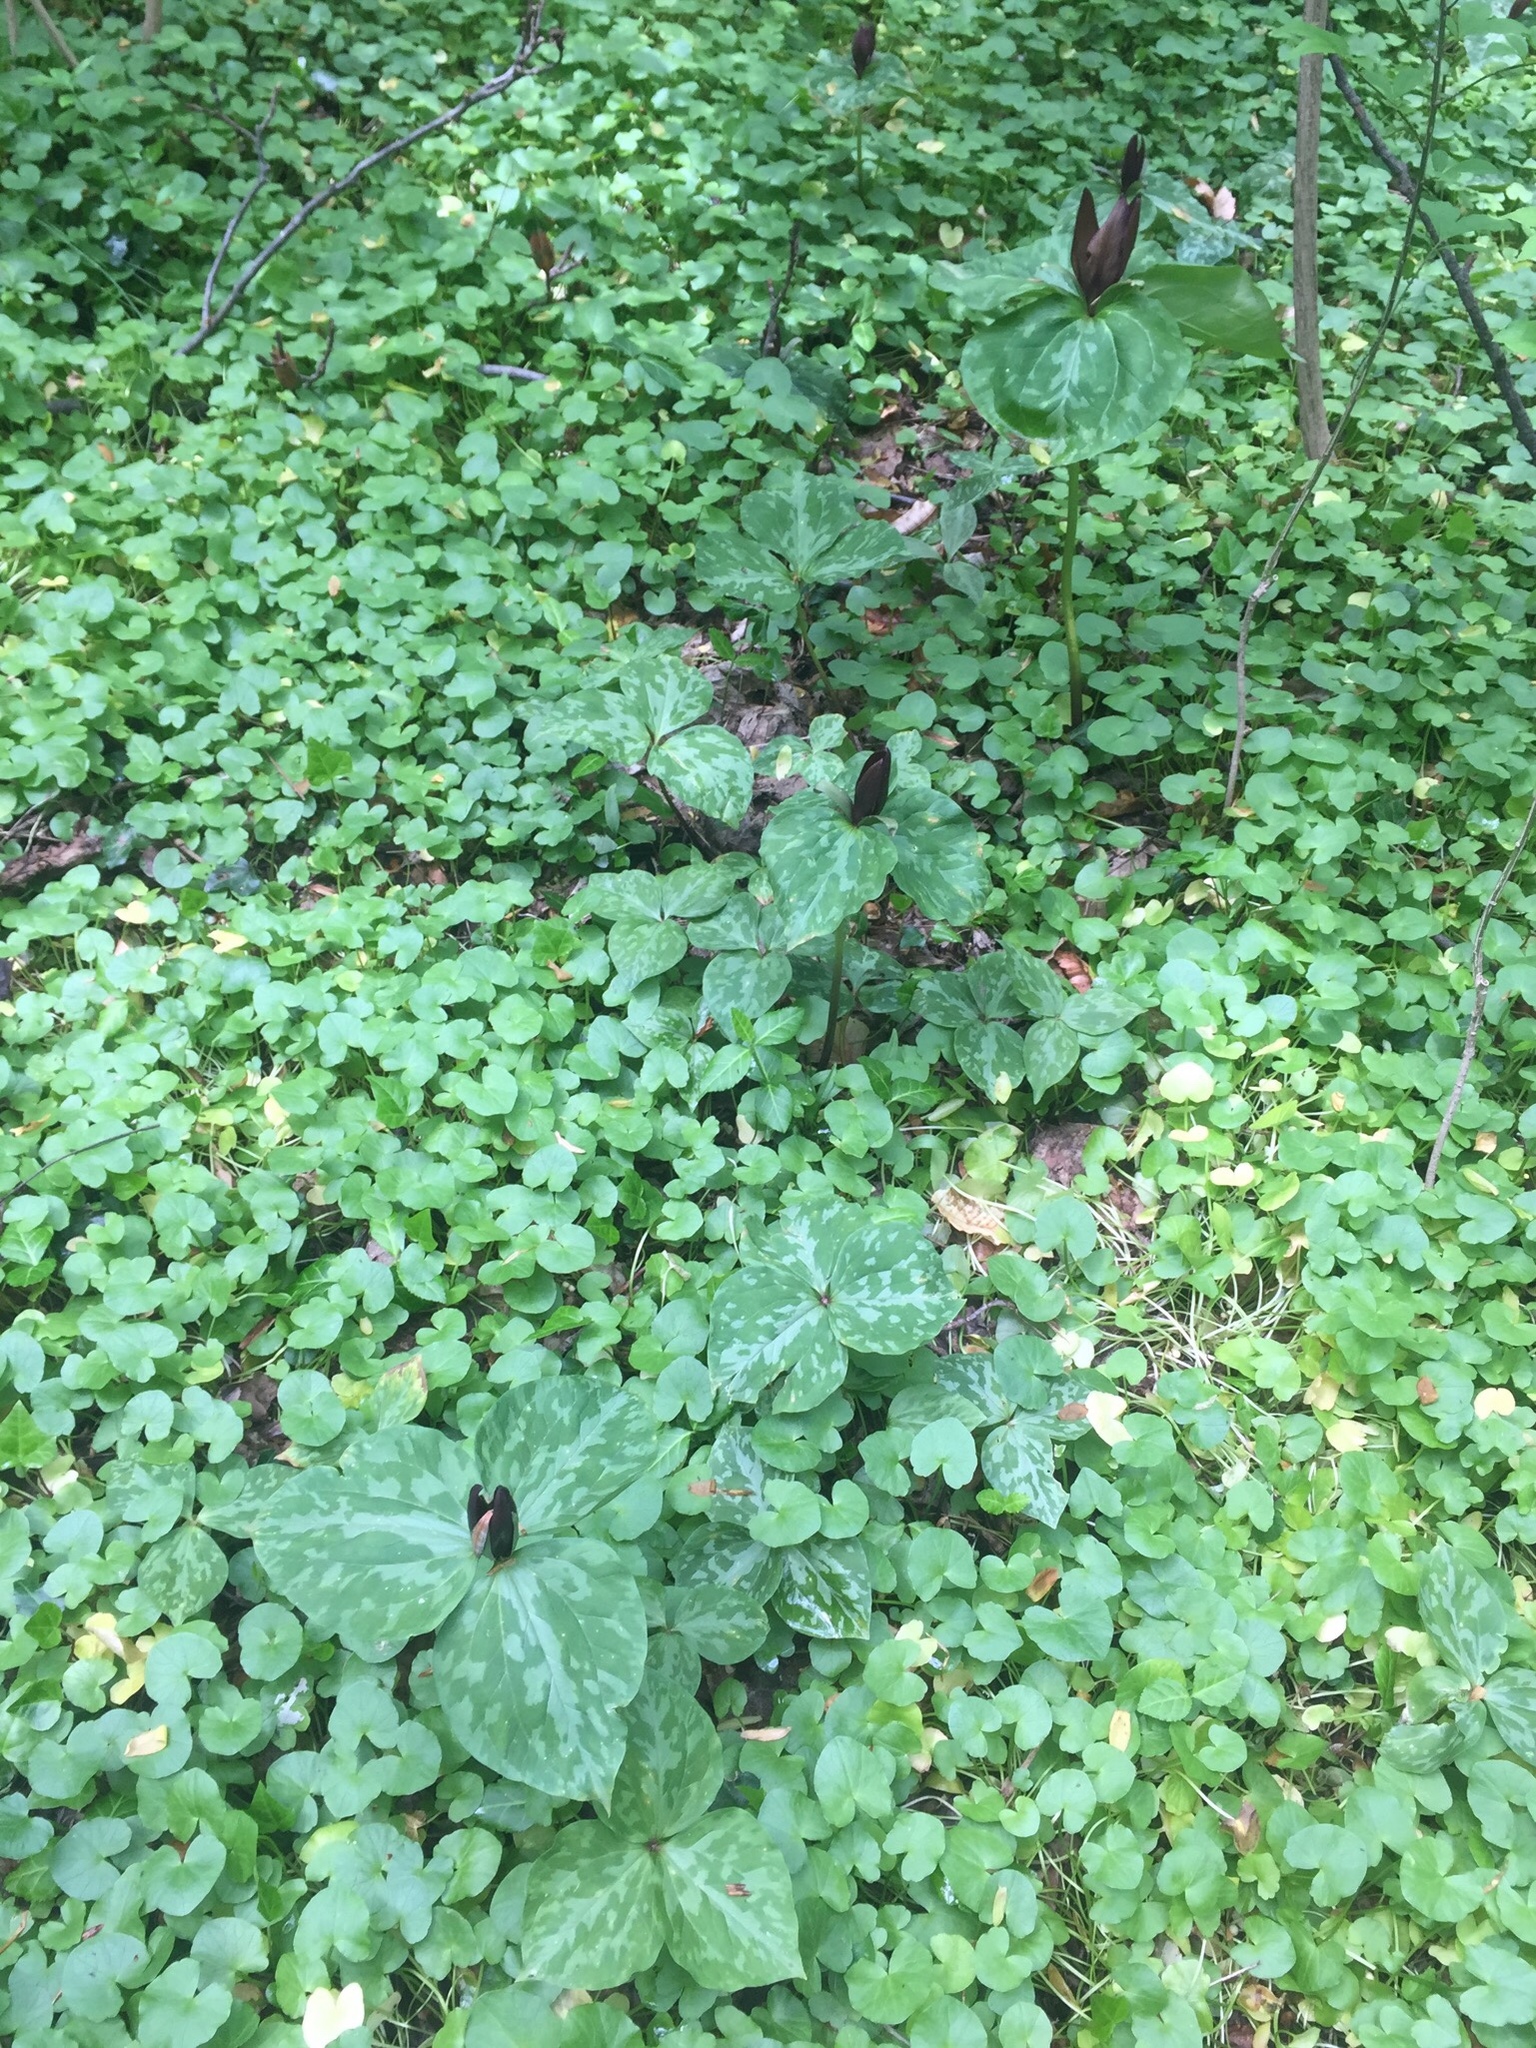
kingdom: Plantae
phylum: Tracheophyta
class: Liliopsida
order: Liliales
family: Melanthiaceae
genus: Trillium
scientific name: Trillium cuneatum
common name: Cuneate trillium
